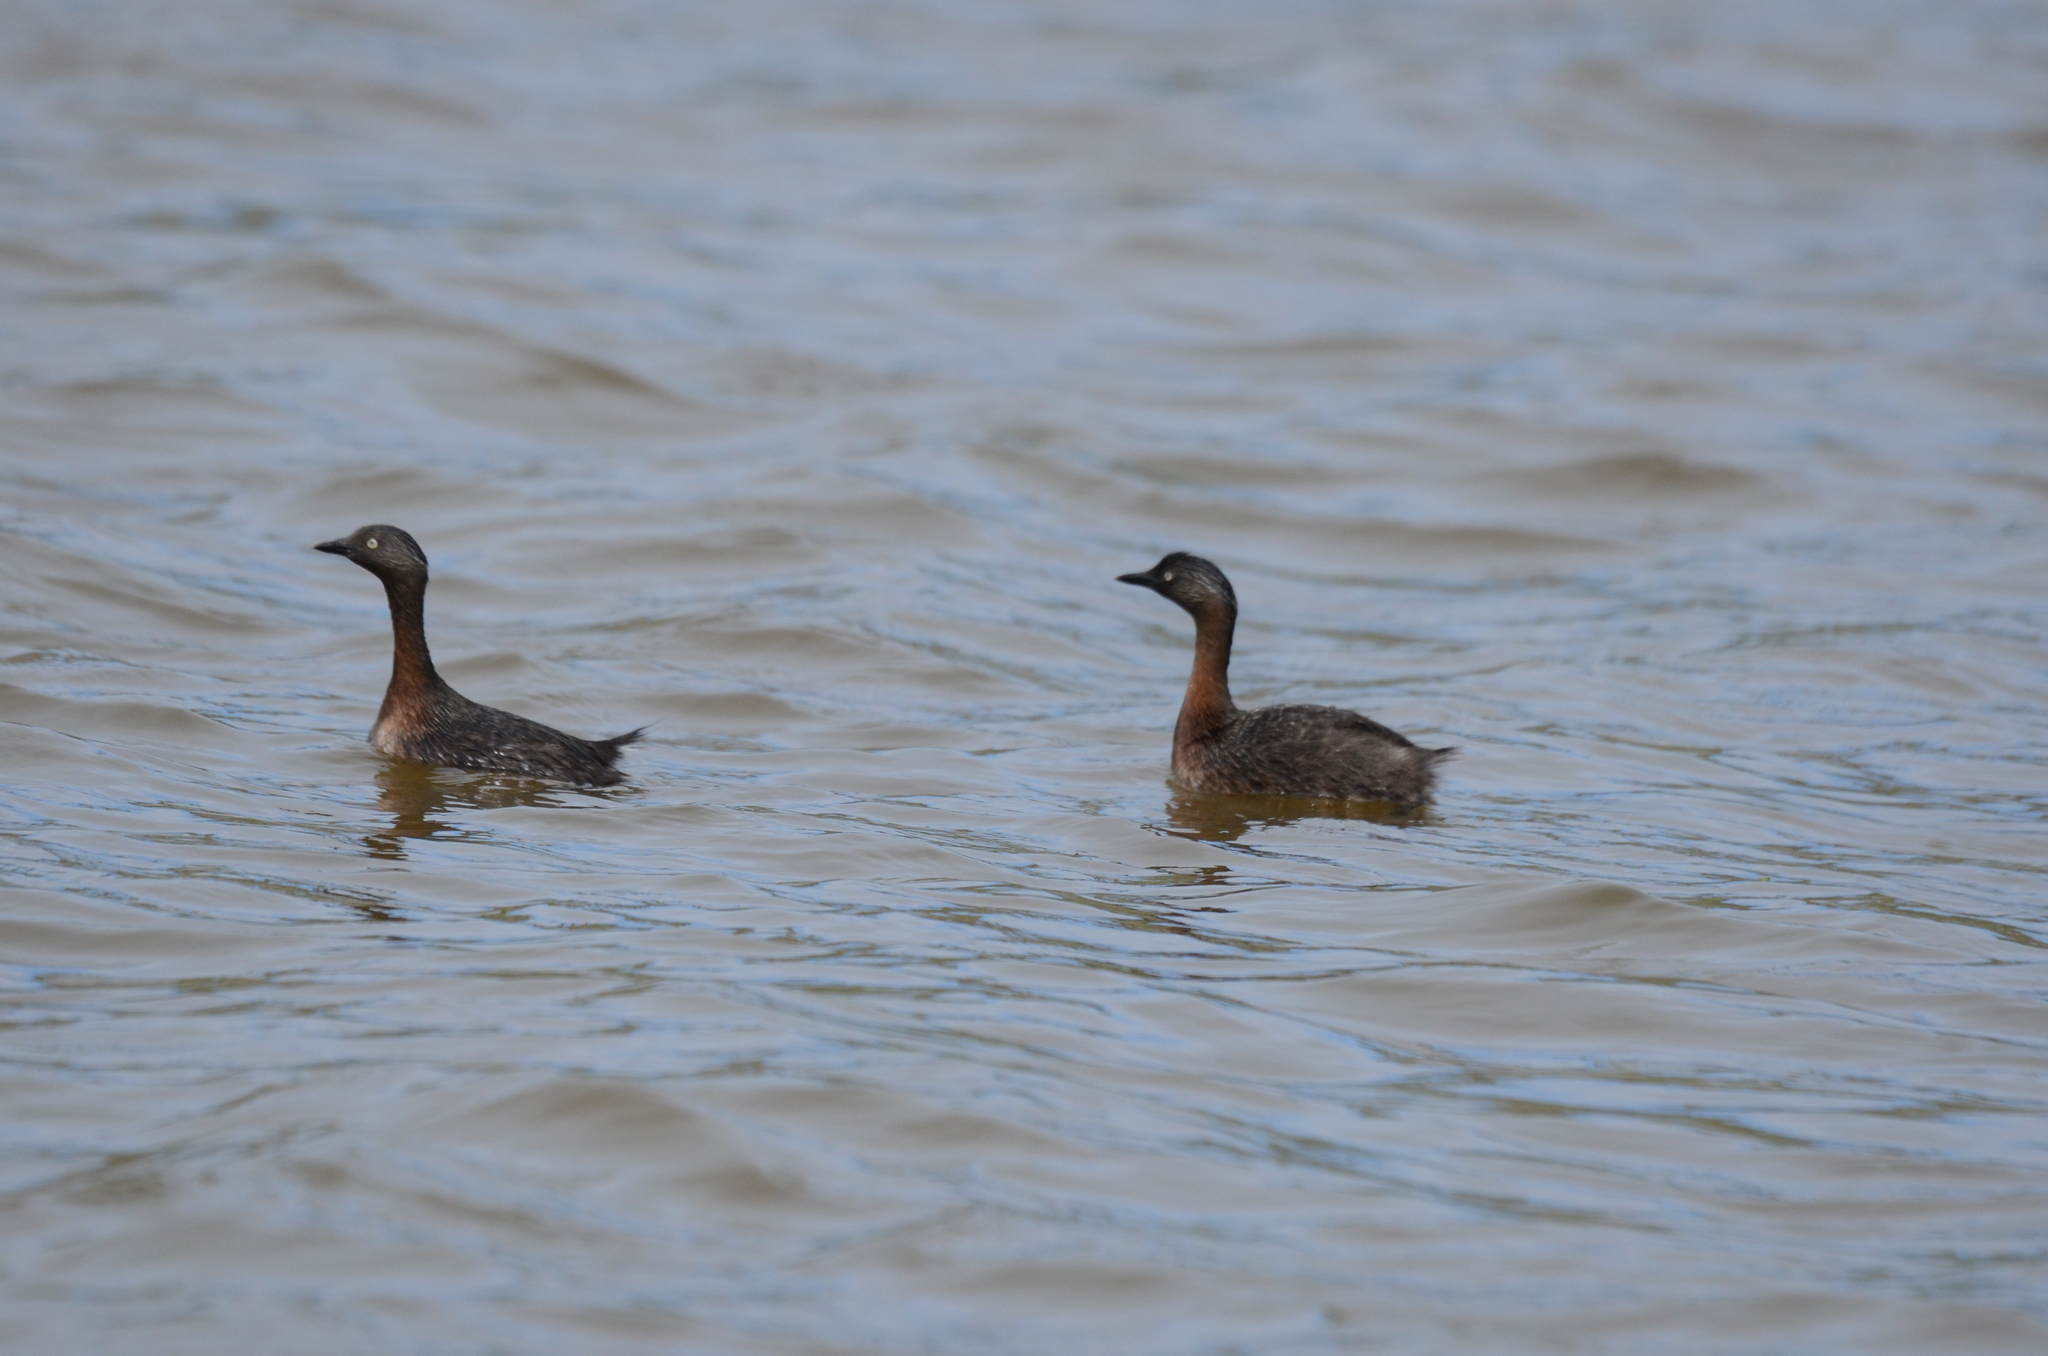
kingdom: Animalia
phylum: Chordata
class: Aves
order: Podicipediformes
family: Podicipedidae
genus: Poliocephalus
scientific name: Poliocephalus rufopectus
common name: New zealand grebe
